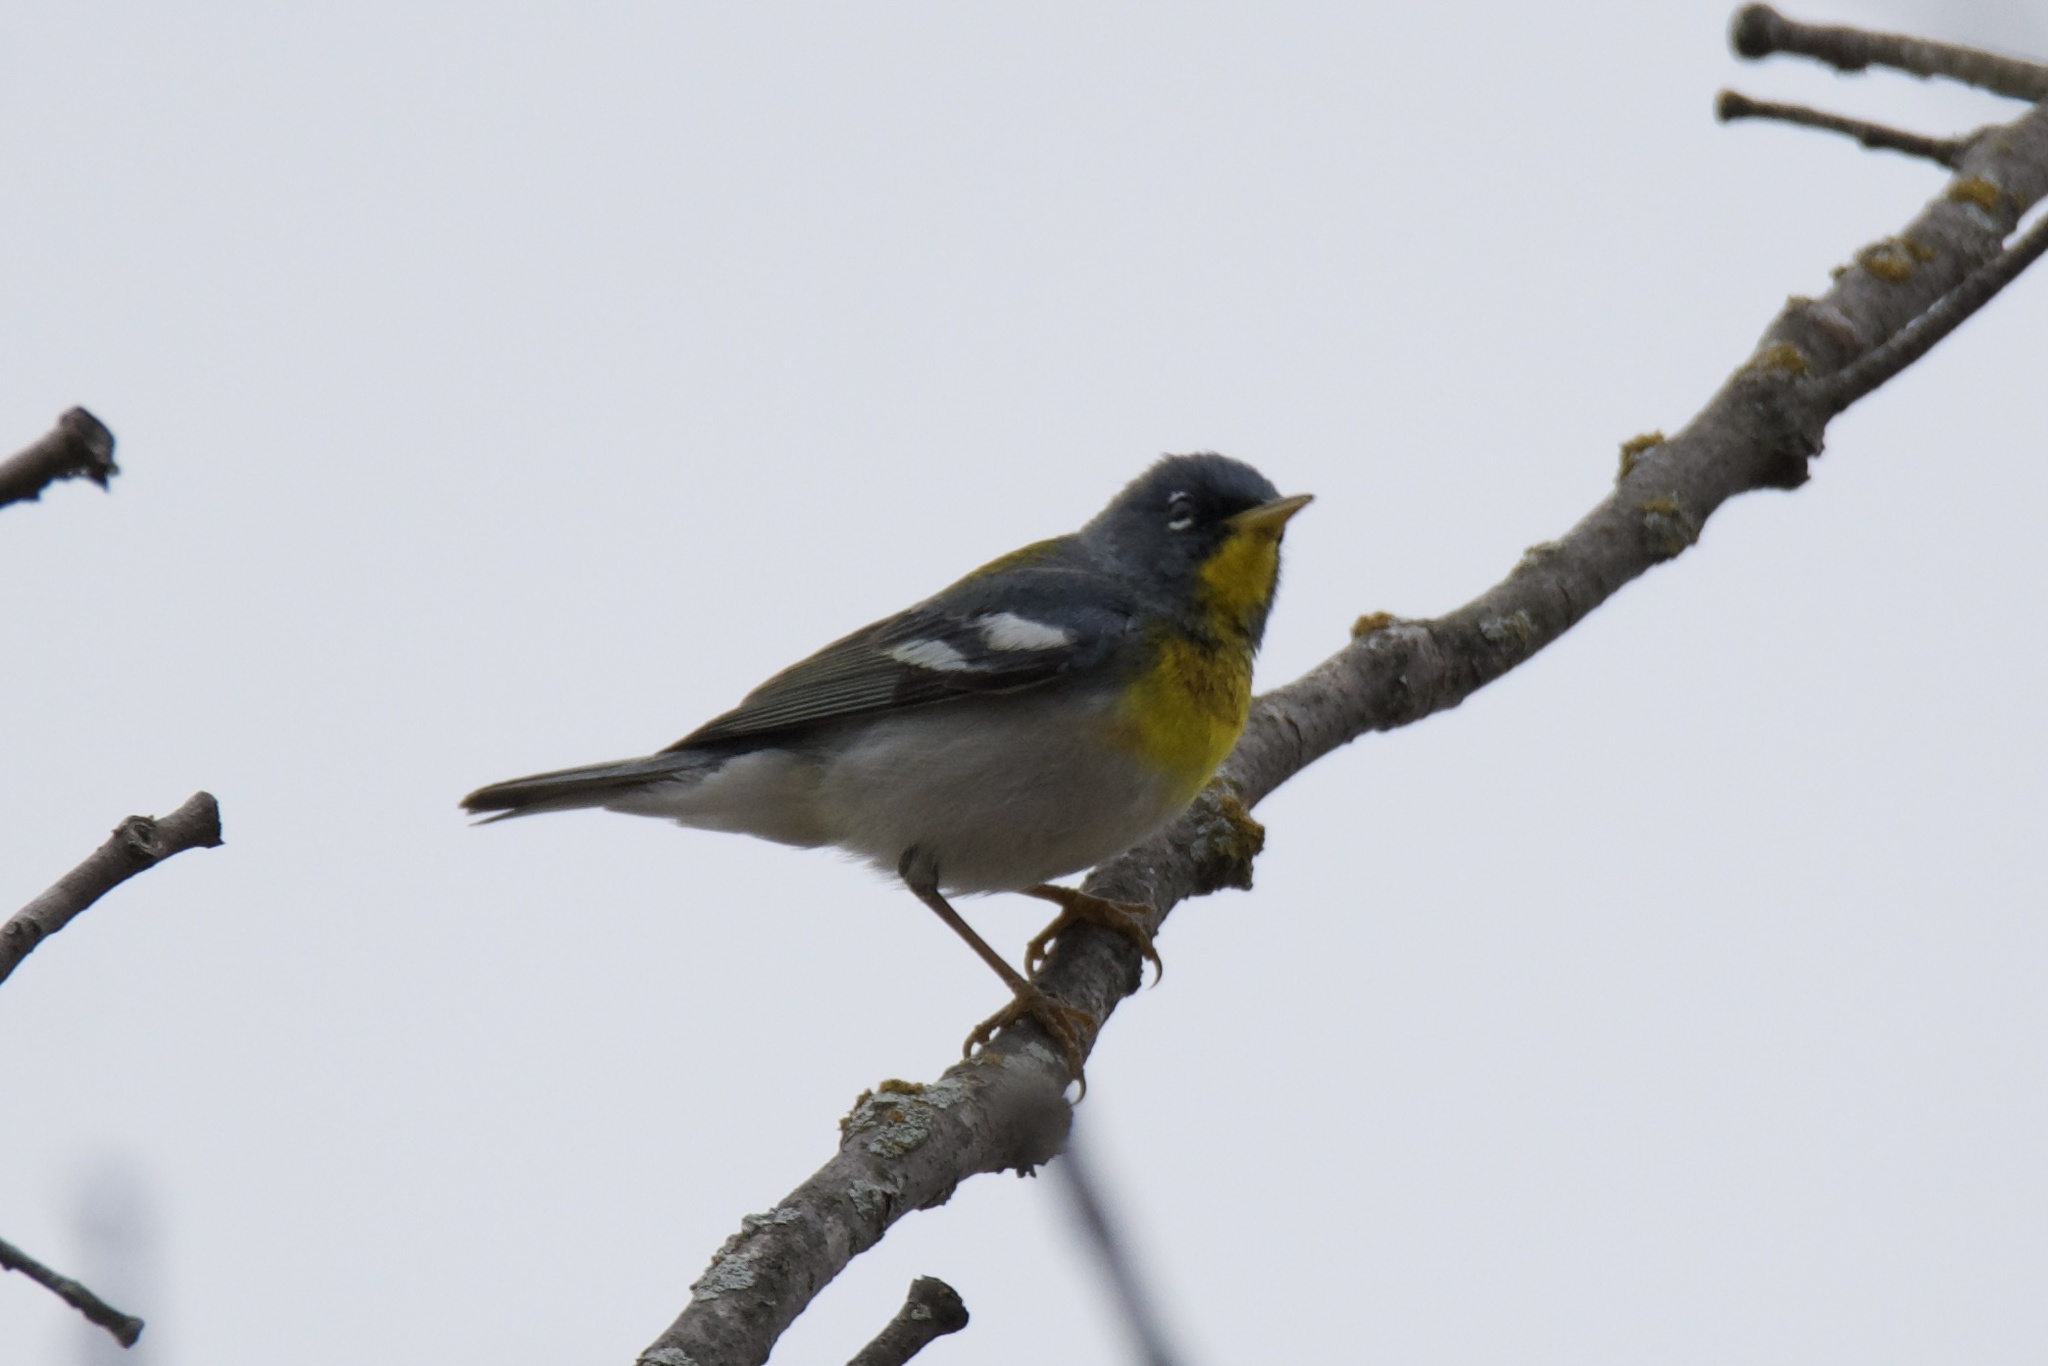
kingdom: Animalia
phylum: Chordata
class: Aves
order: Passeriformes
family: Parulidae
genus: Setophaga
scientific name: Setophaga americana
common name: Northern parula
